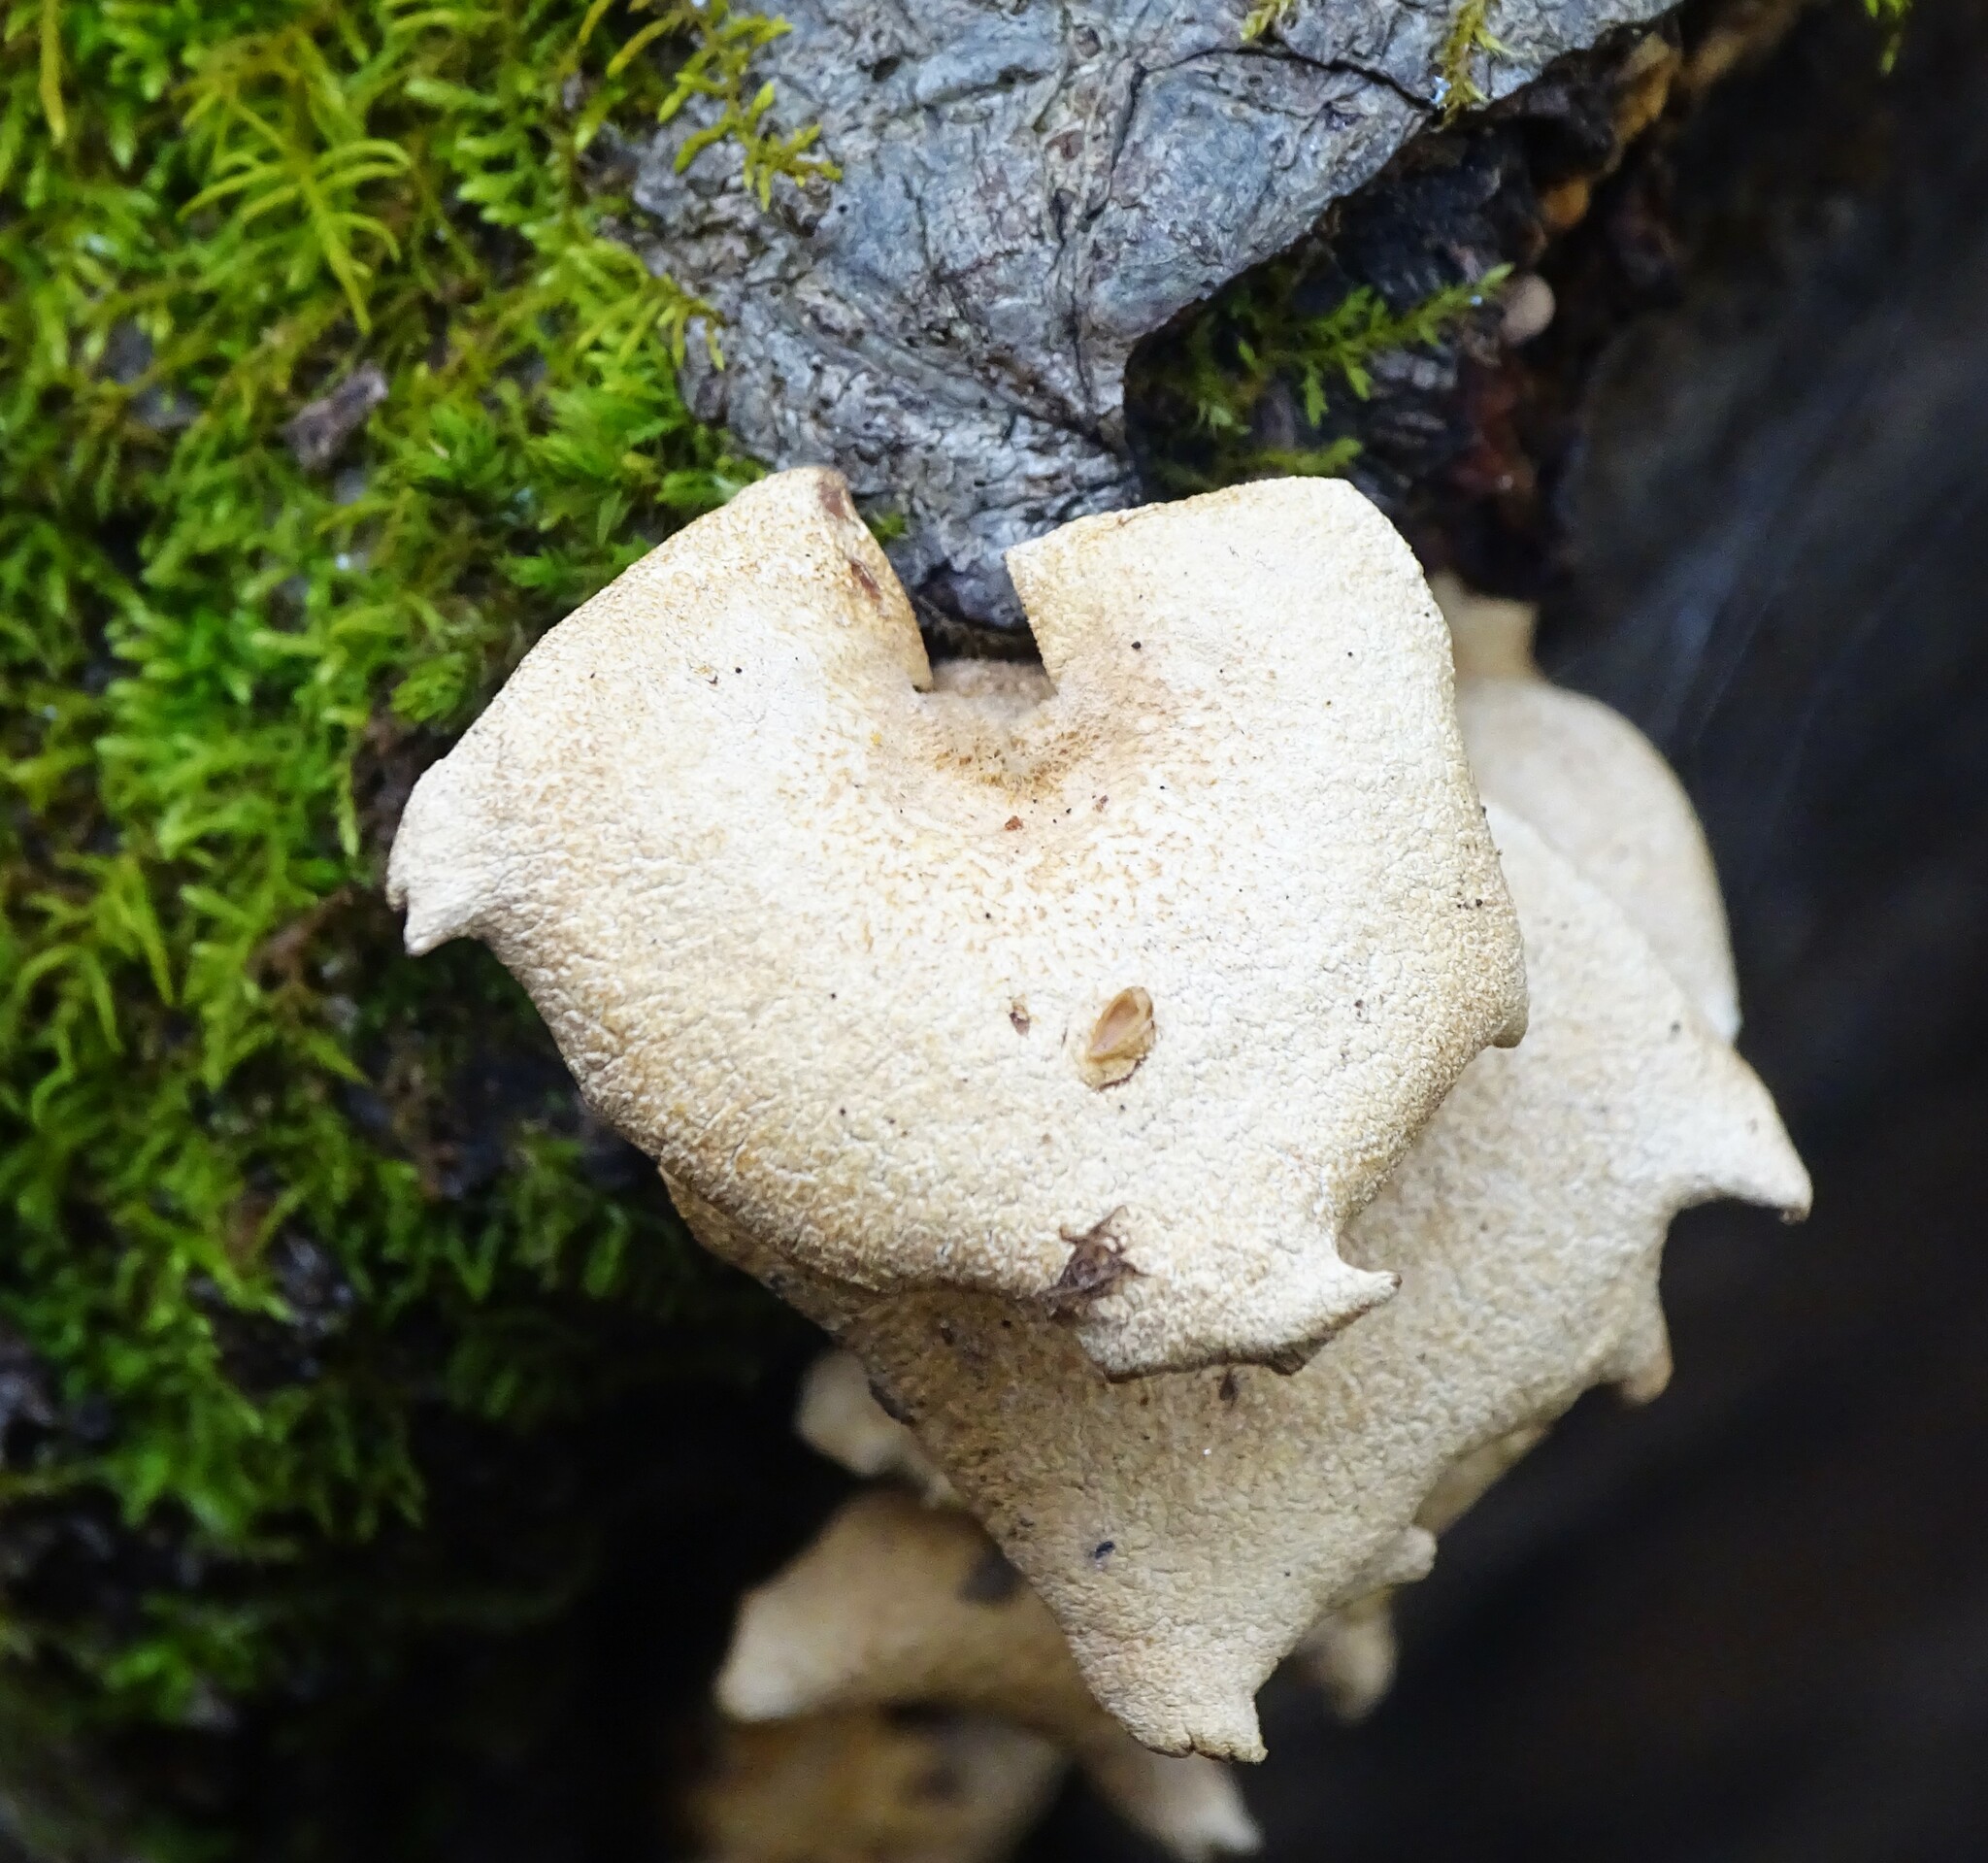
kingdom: Fungi
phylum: Basidiomycota
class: Agaricomycetes
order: Agaricales
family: Mycenaceae
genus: Panellus
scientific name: Panellus stipticus
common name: Bitter oysterling
